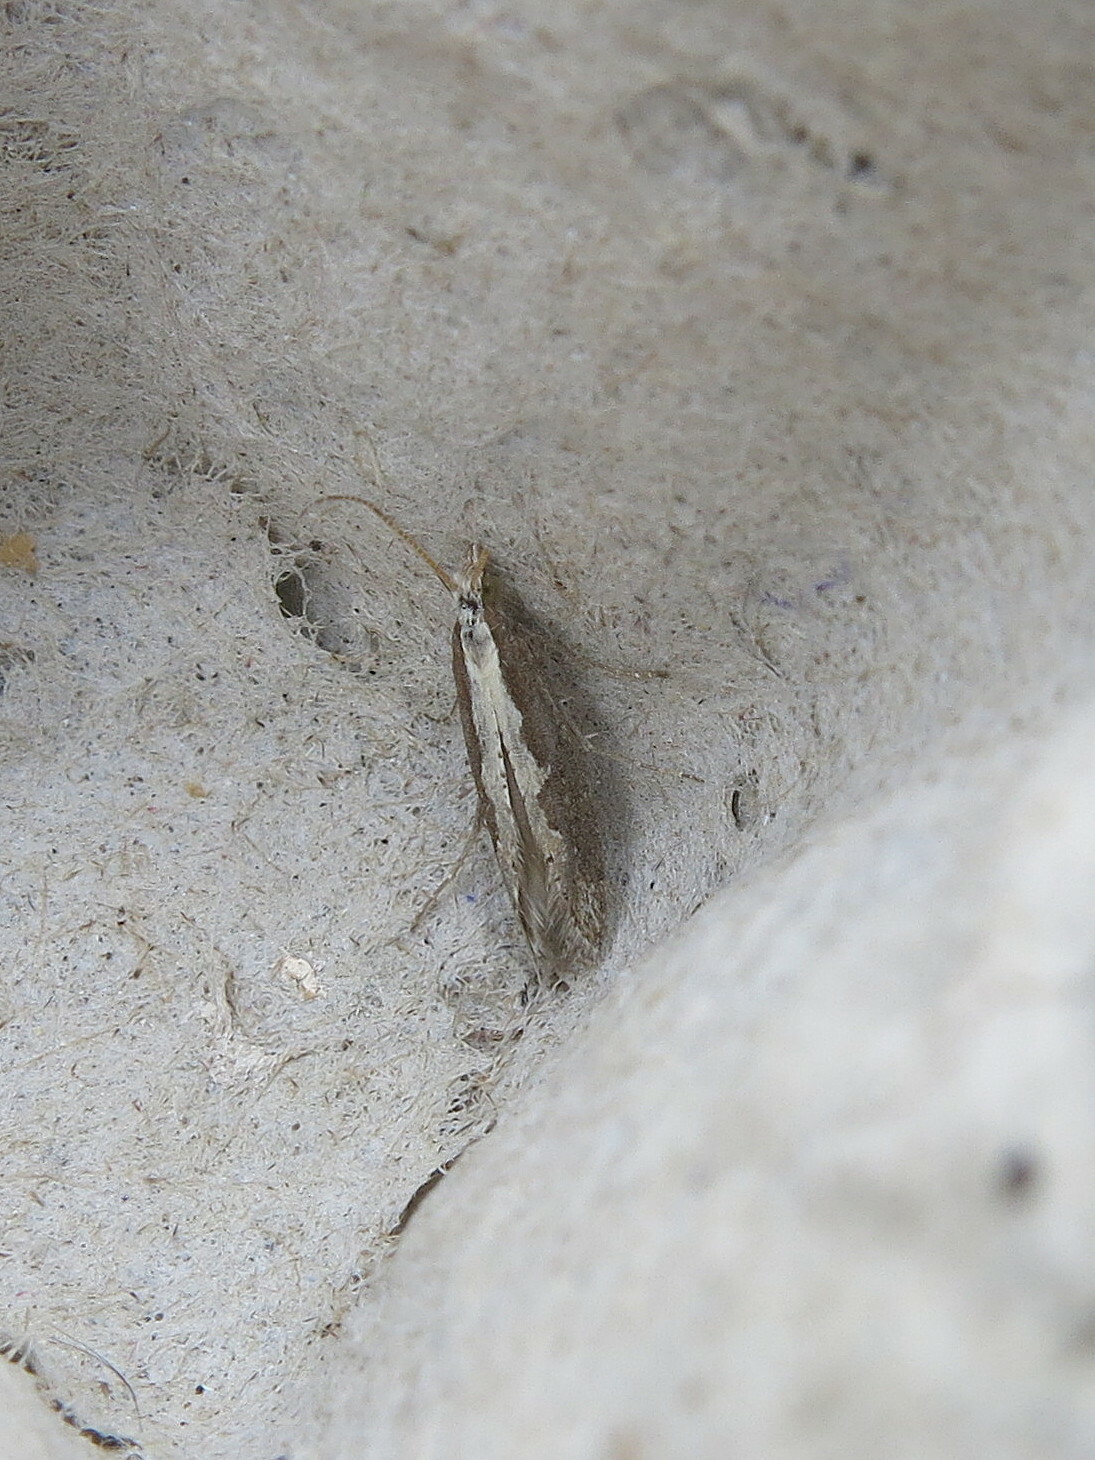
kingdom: Animalia
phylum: Arthropoda
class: Insecta
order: Lepidoptera
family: Plutellidae
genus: Plutella
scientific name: Plutella xylostella
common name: Diamond-back moth
